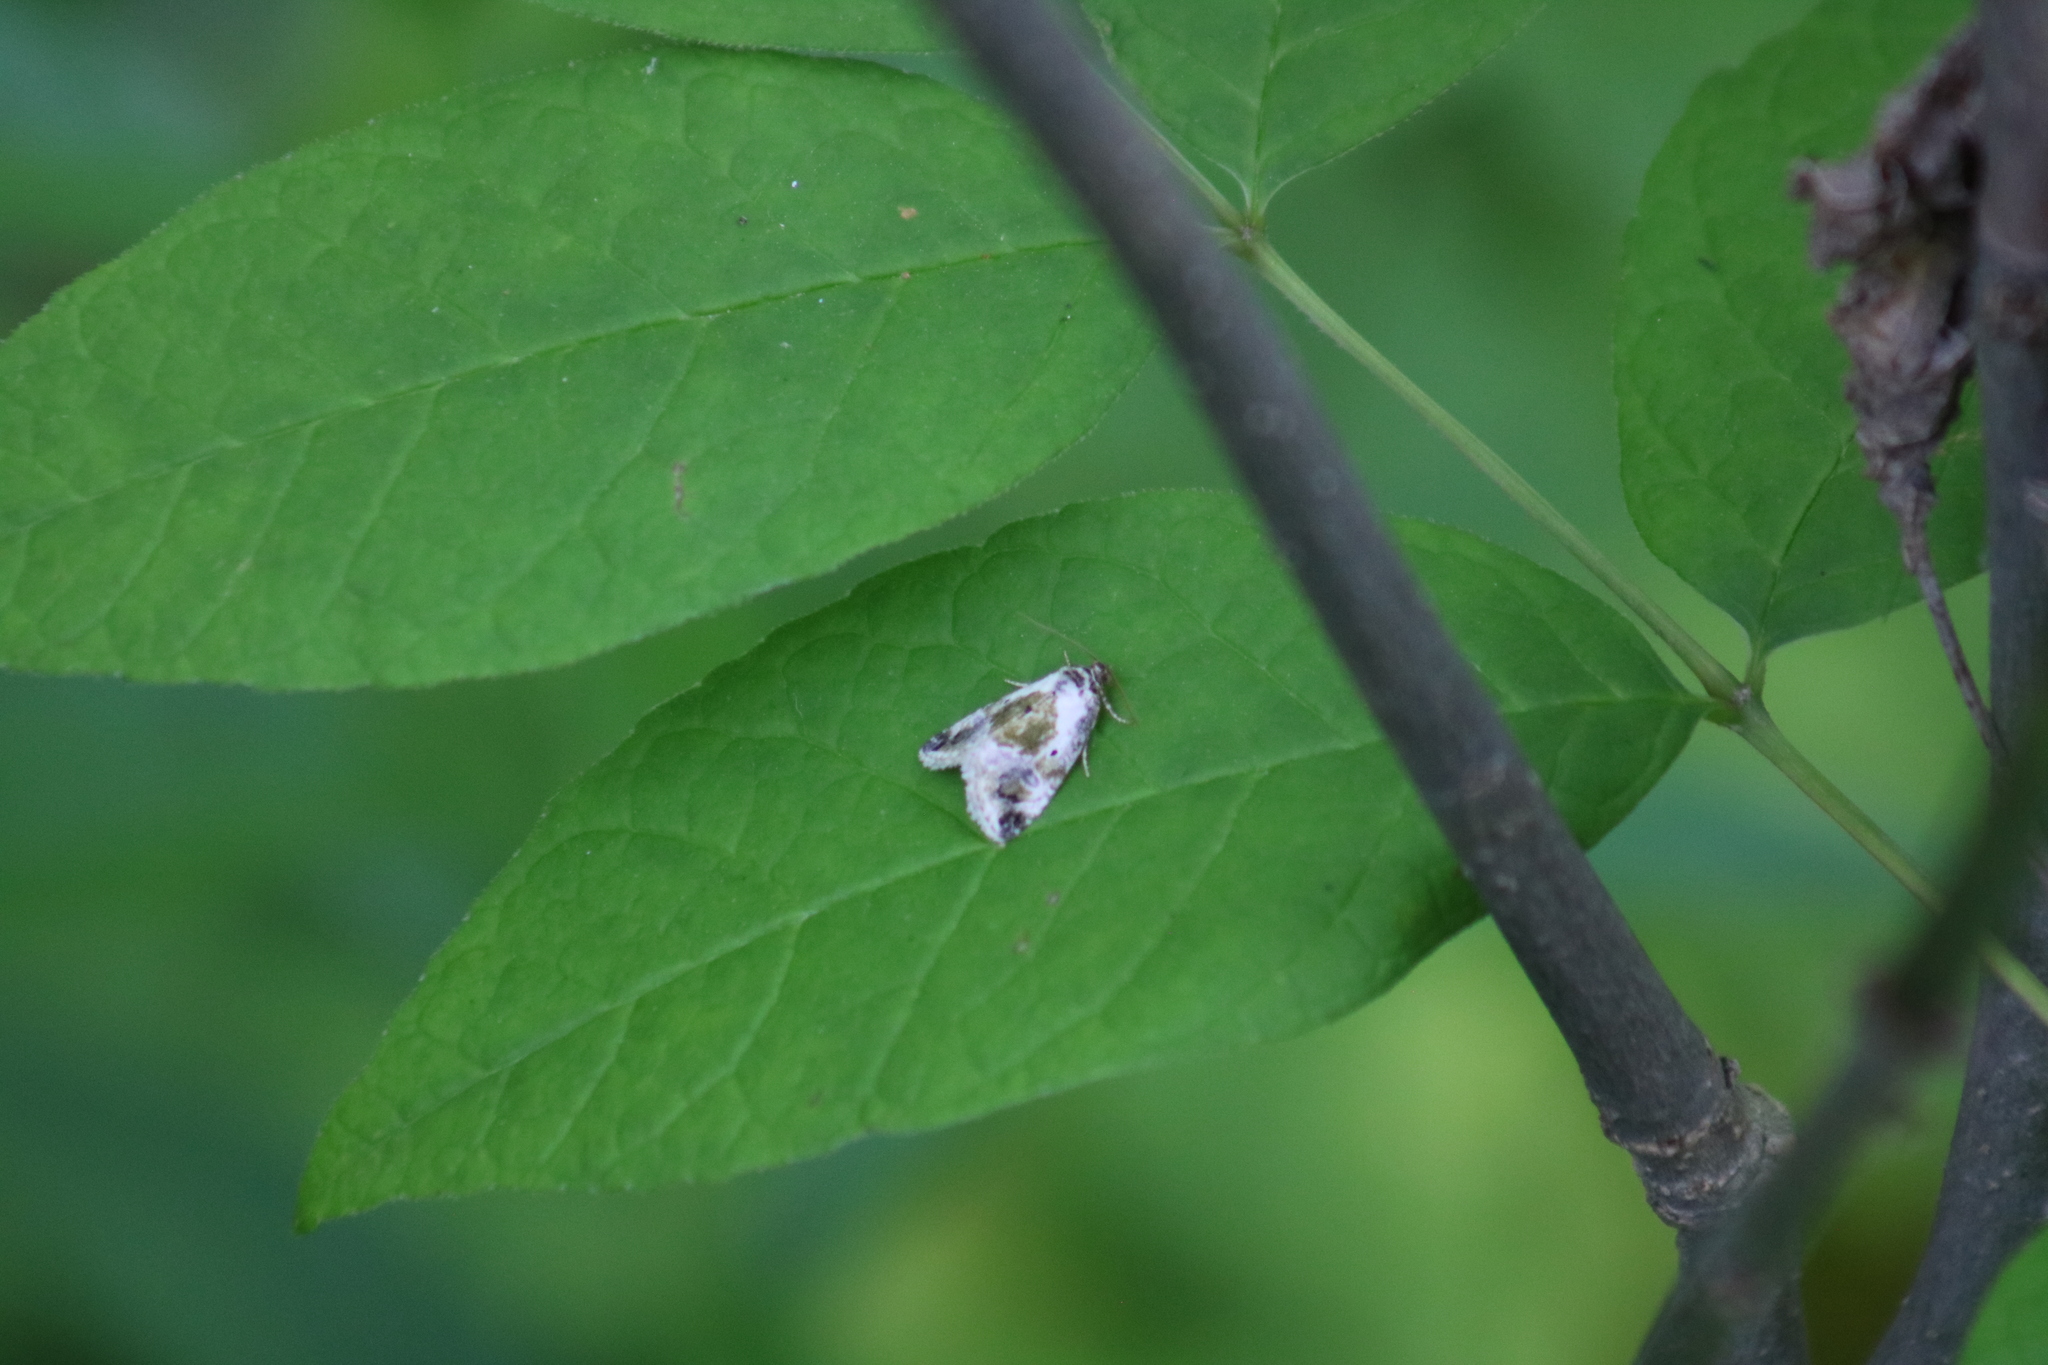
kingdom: Animalia
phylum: Arthropoda
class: Insecta
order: Lepidoptera
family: Noctuidae
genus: Maliattha
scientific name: Maliattha synochitis
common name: Black-dotted glyph
